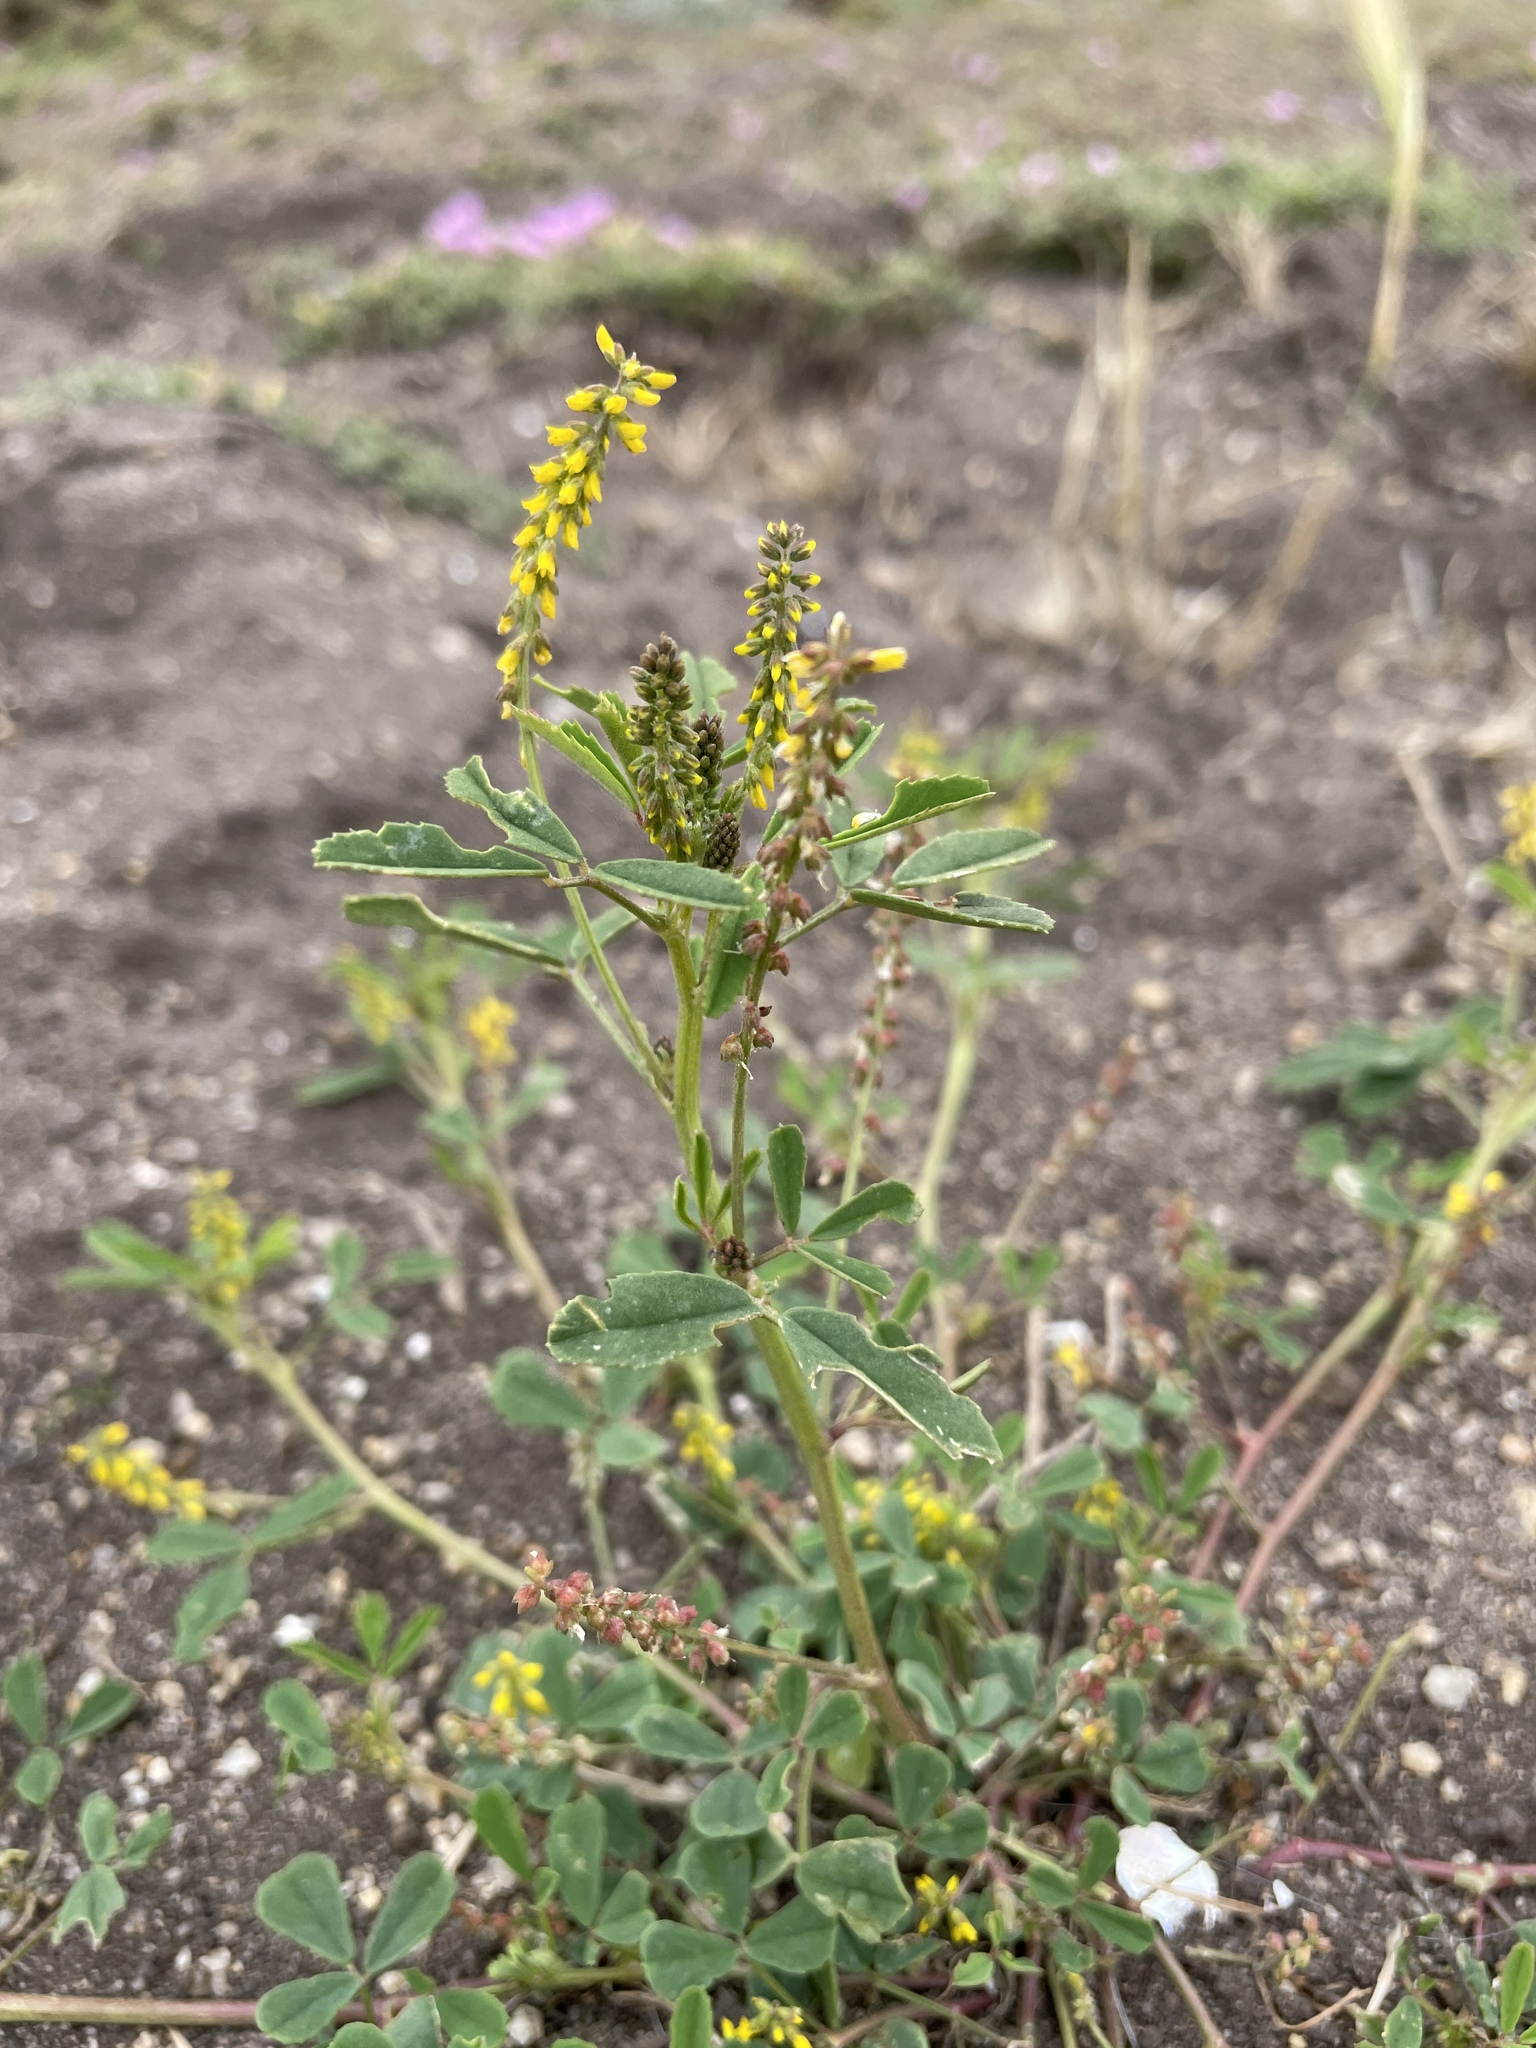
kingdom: Plantae
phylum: Tracheophyta
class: Magnoliopsida
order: Fabales
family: Fabaceae
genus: Melilotus
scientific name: Melilotus indicus
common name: Small melilot
